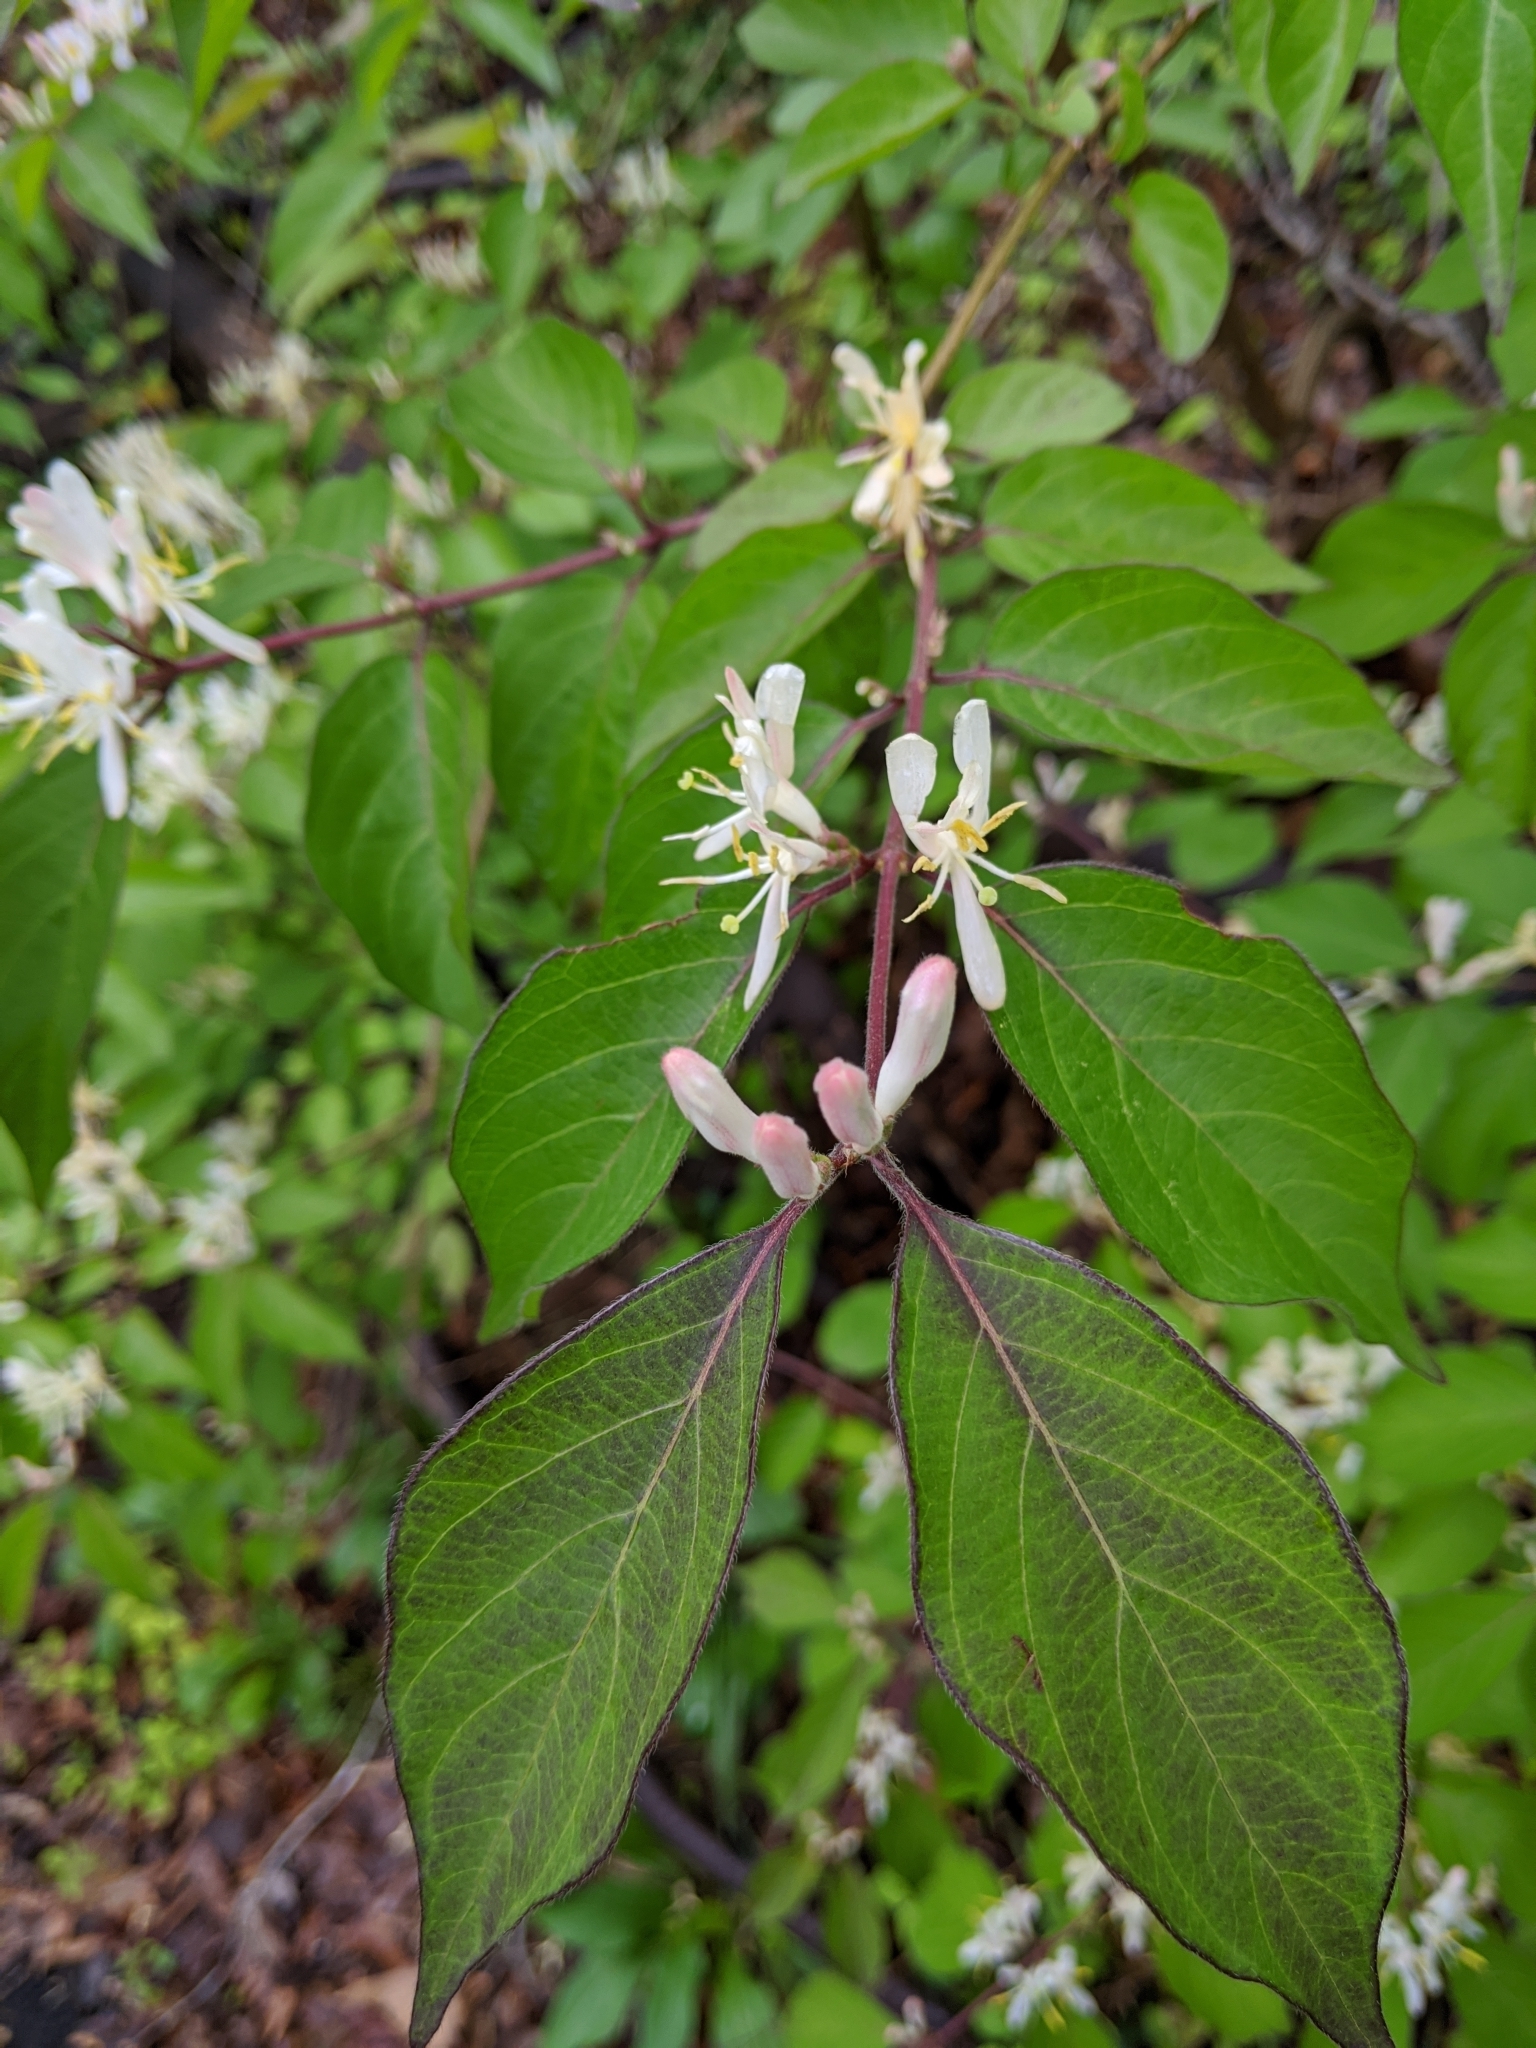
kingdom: Plantae
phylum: Tracheophyta
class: Magnoliopsida
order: Dipsacales
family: Caprifoliaceae
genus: Lonicera
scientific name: Lonicera maackii
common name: Amur honeysuckle
